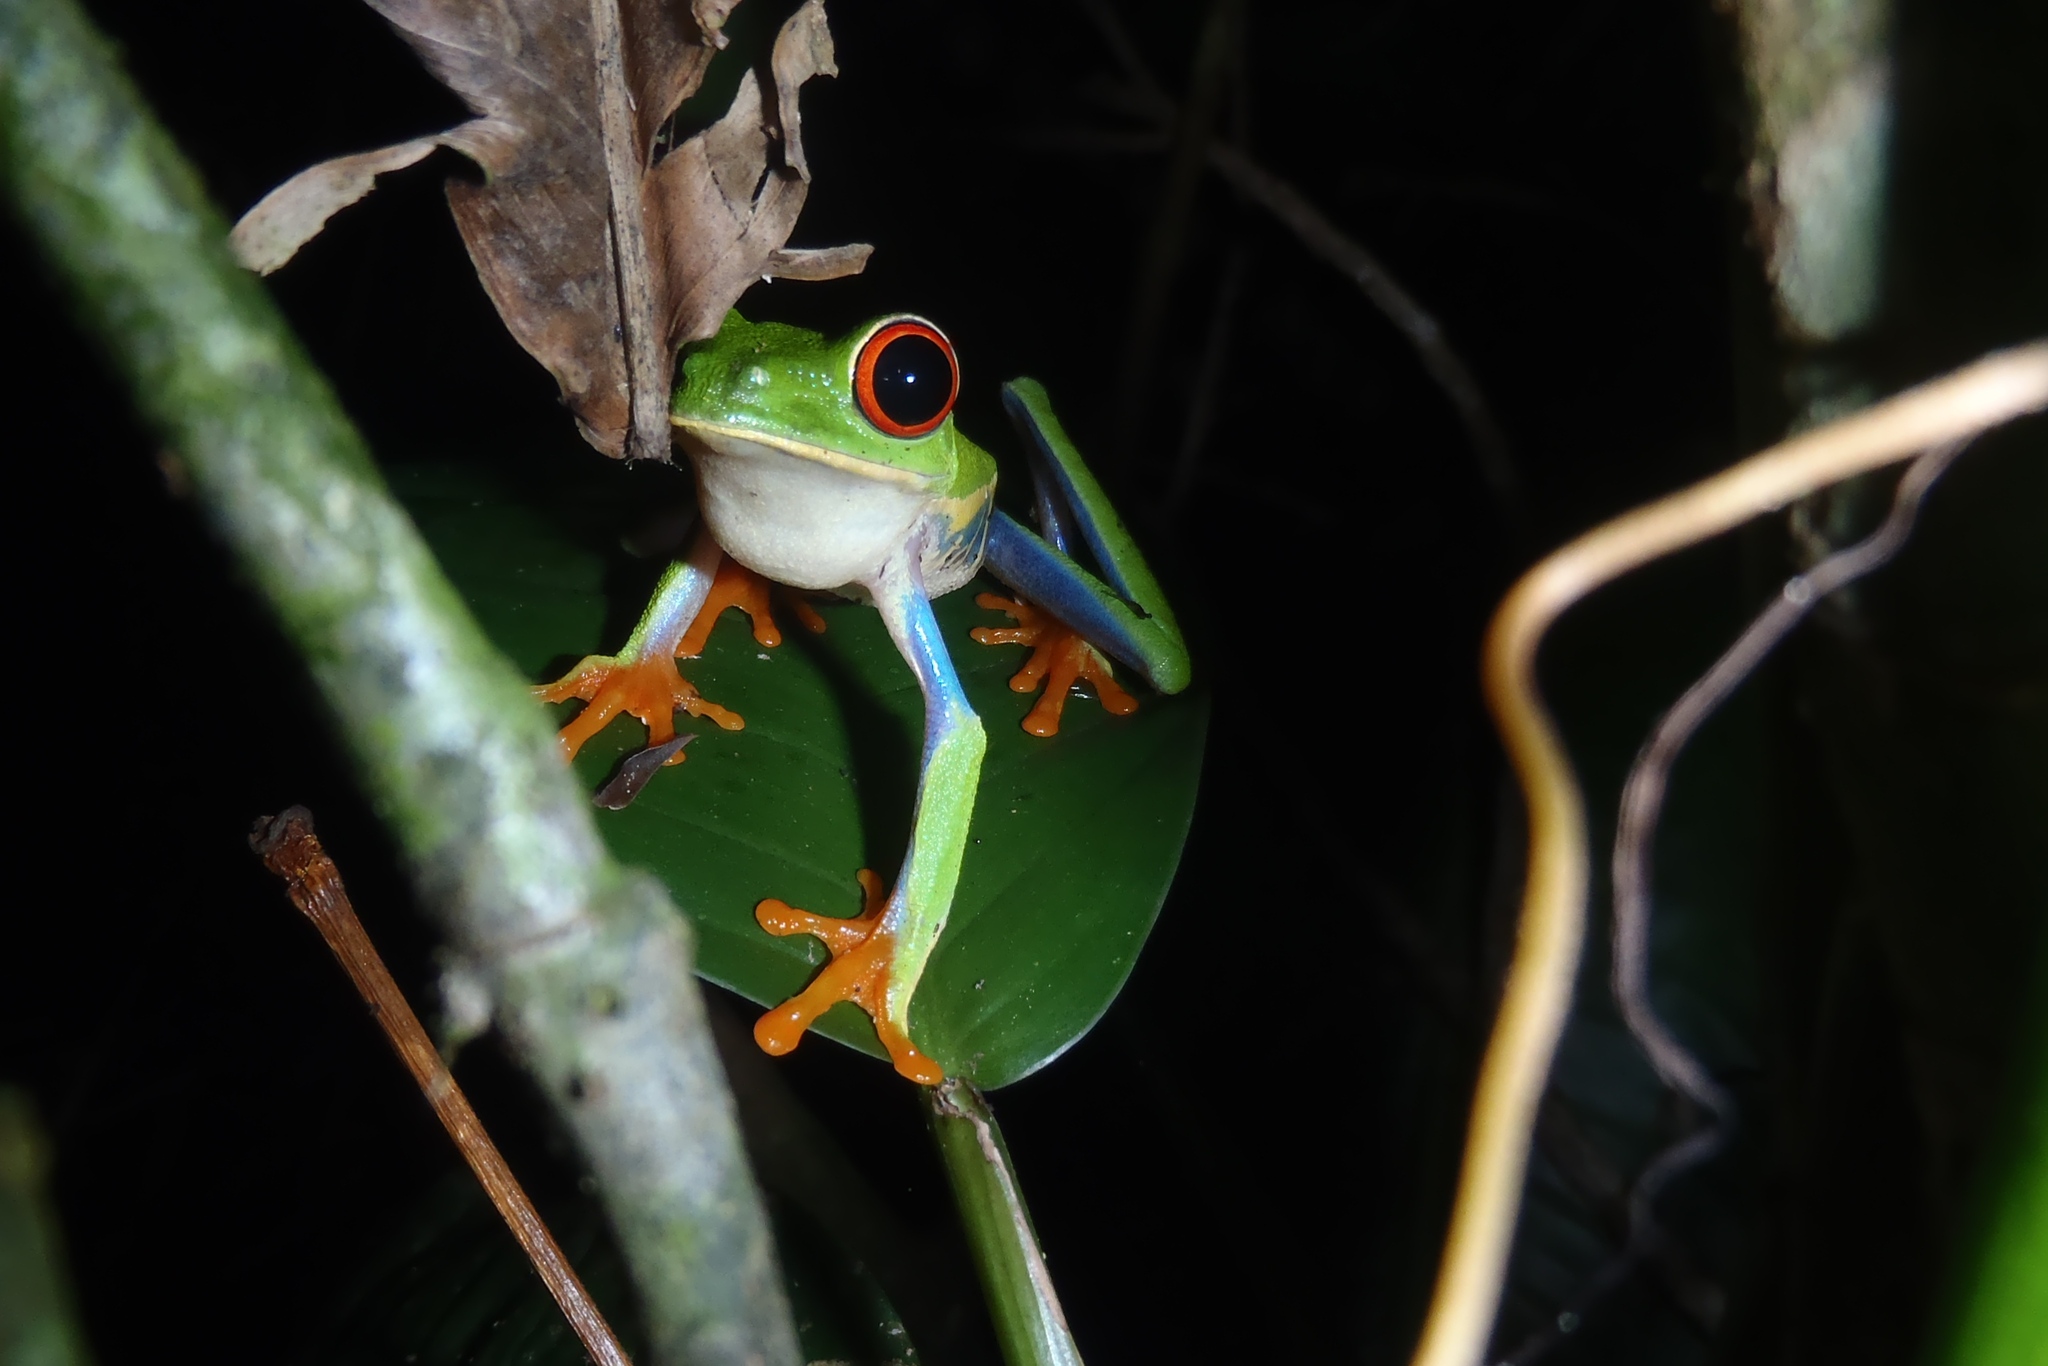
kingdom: Animalia
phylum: Chordata
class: Amphibia
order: Anura
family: Phyllomedusidae
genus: Agalychnis
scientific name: Agalychnis callidryas
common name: Red-eyed treefrog
